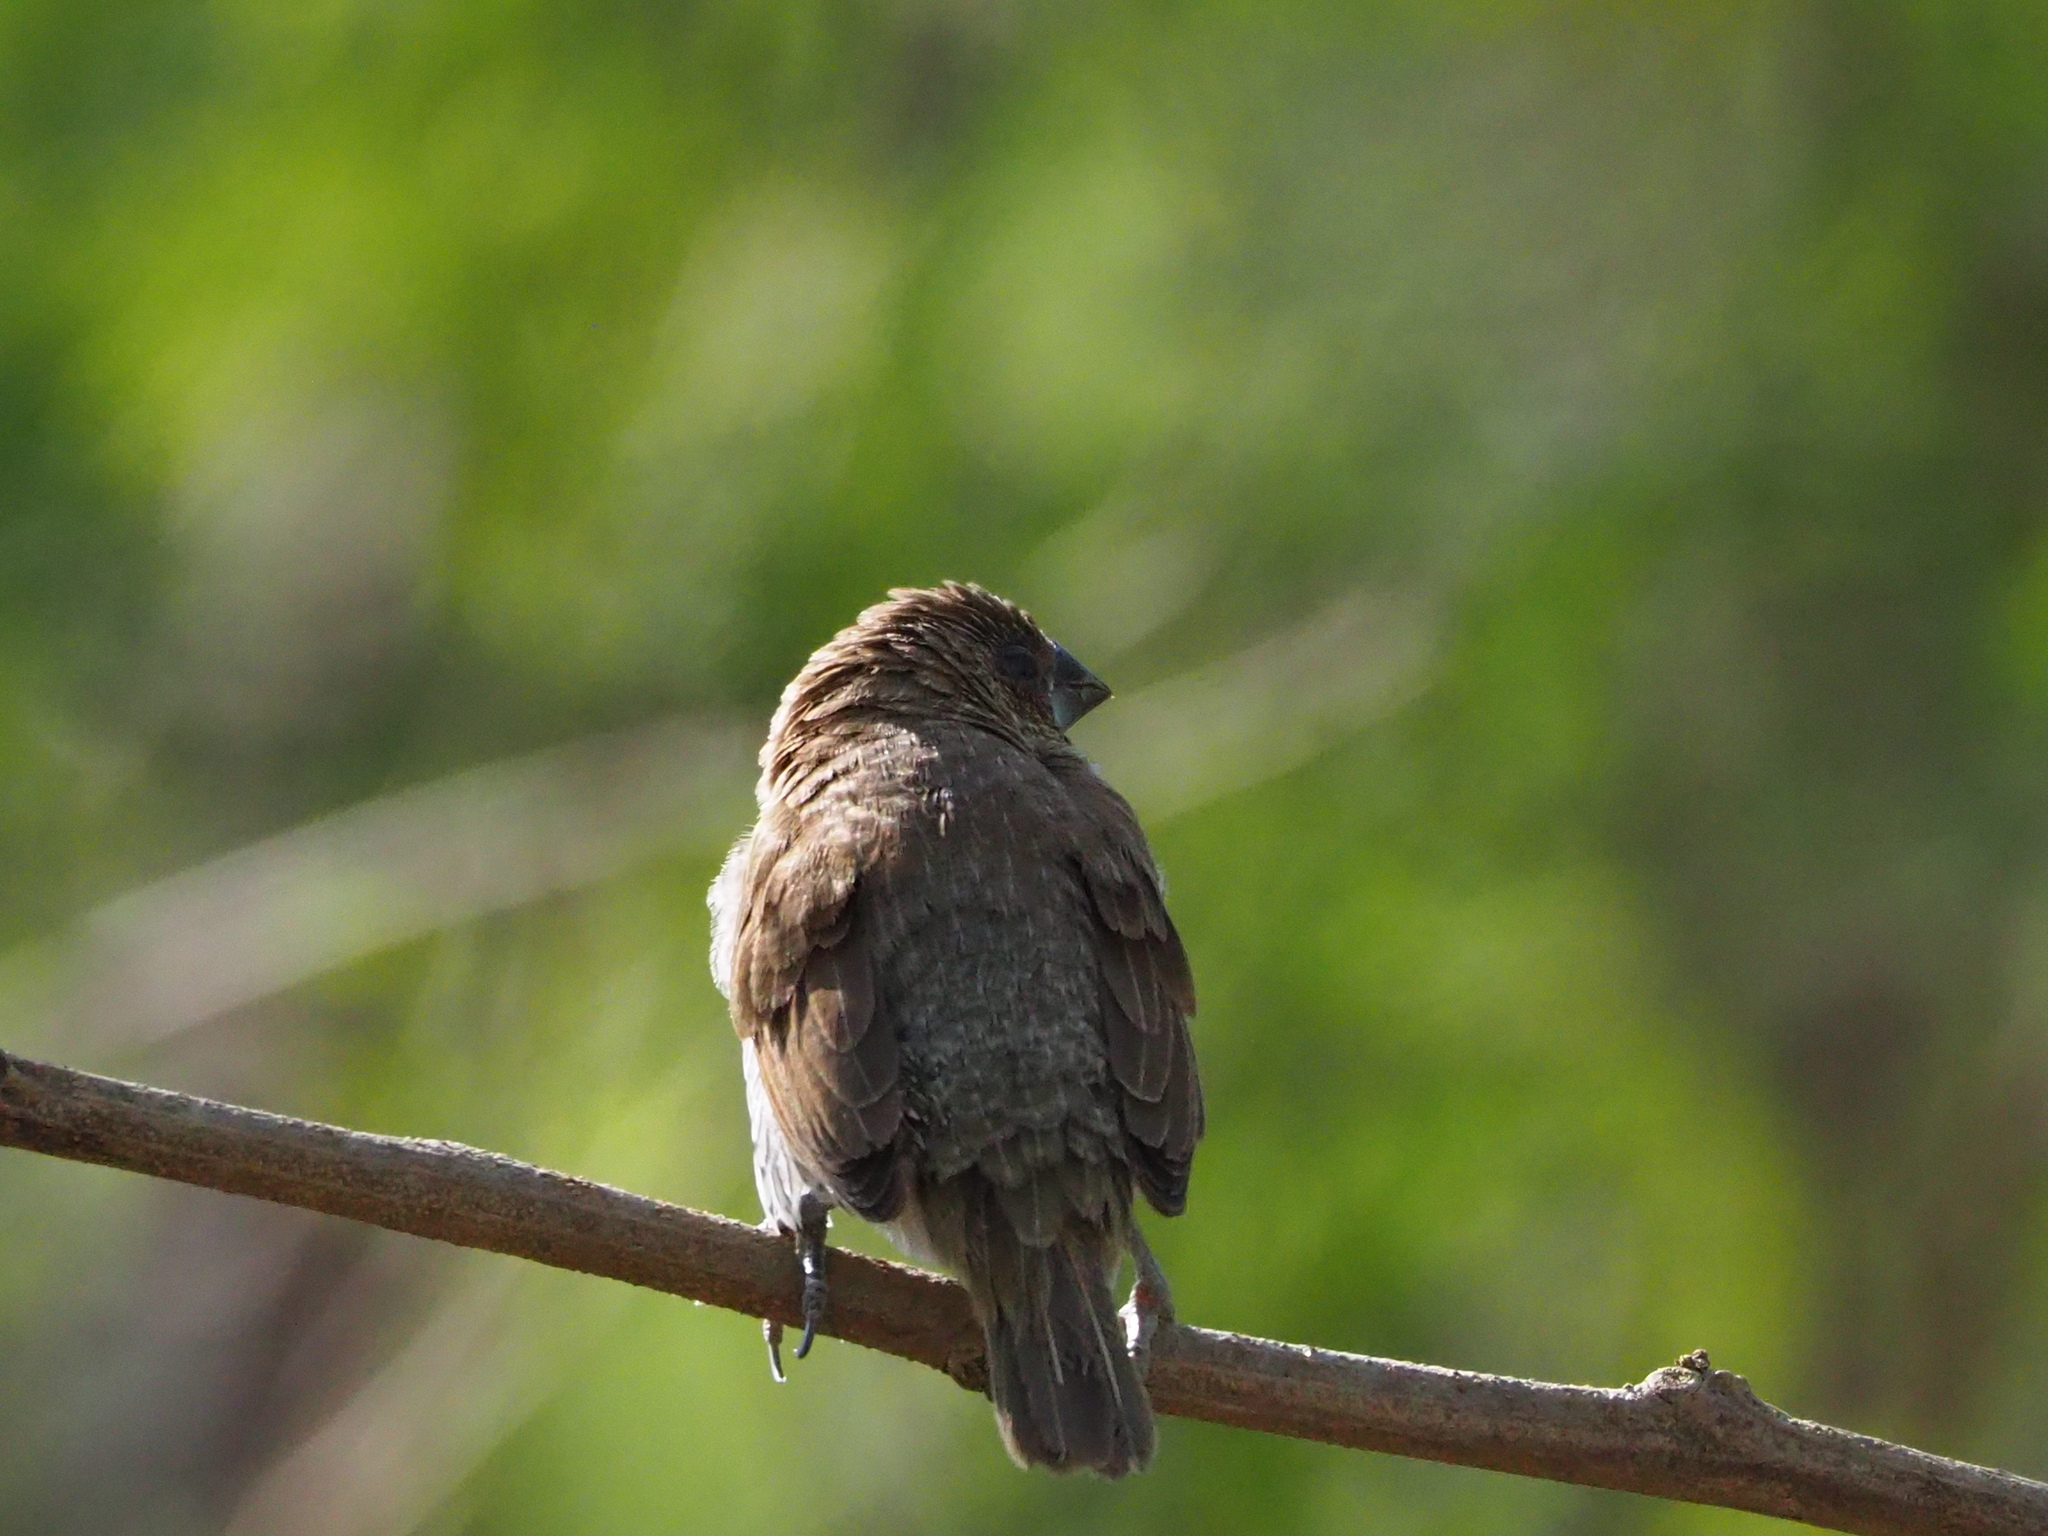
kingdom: Animalia
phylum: Chordata
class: Aves
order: Passeriformes
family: Estrildidae
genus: Lonchura
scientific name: Lonchura punctulata
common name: Scaly-breasted munia
